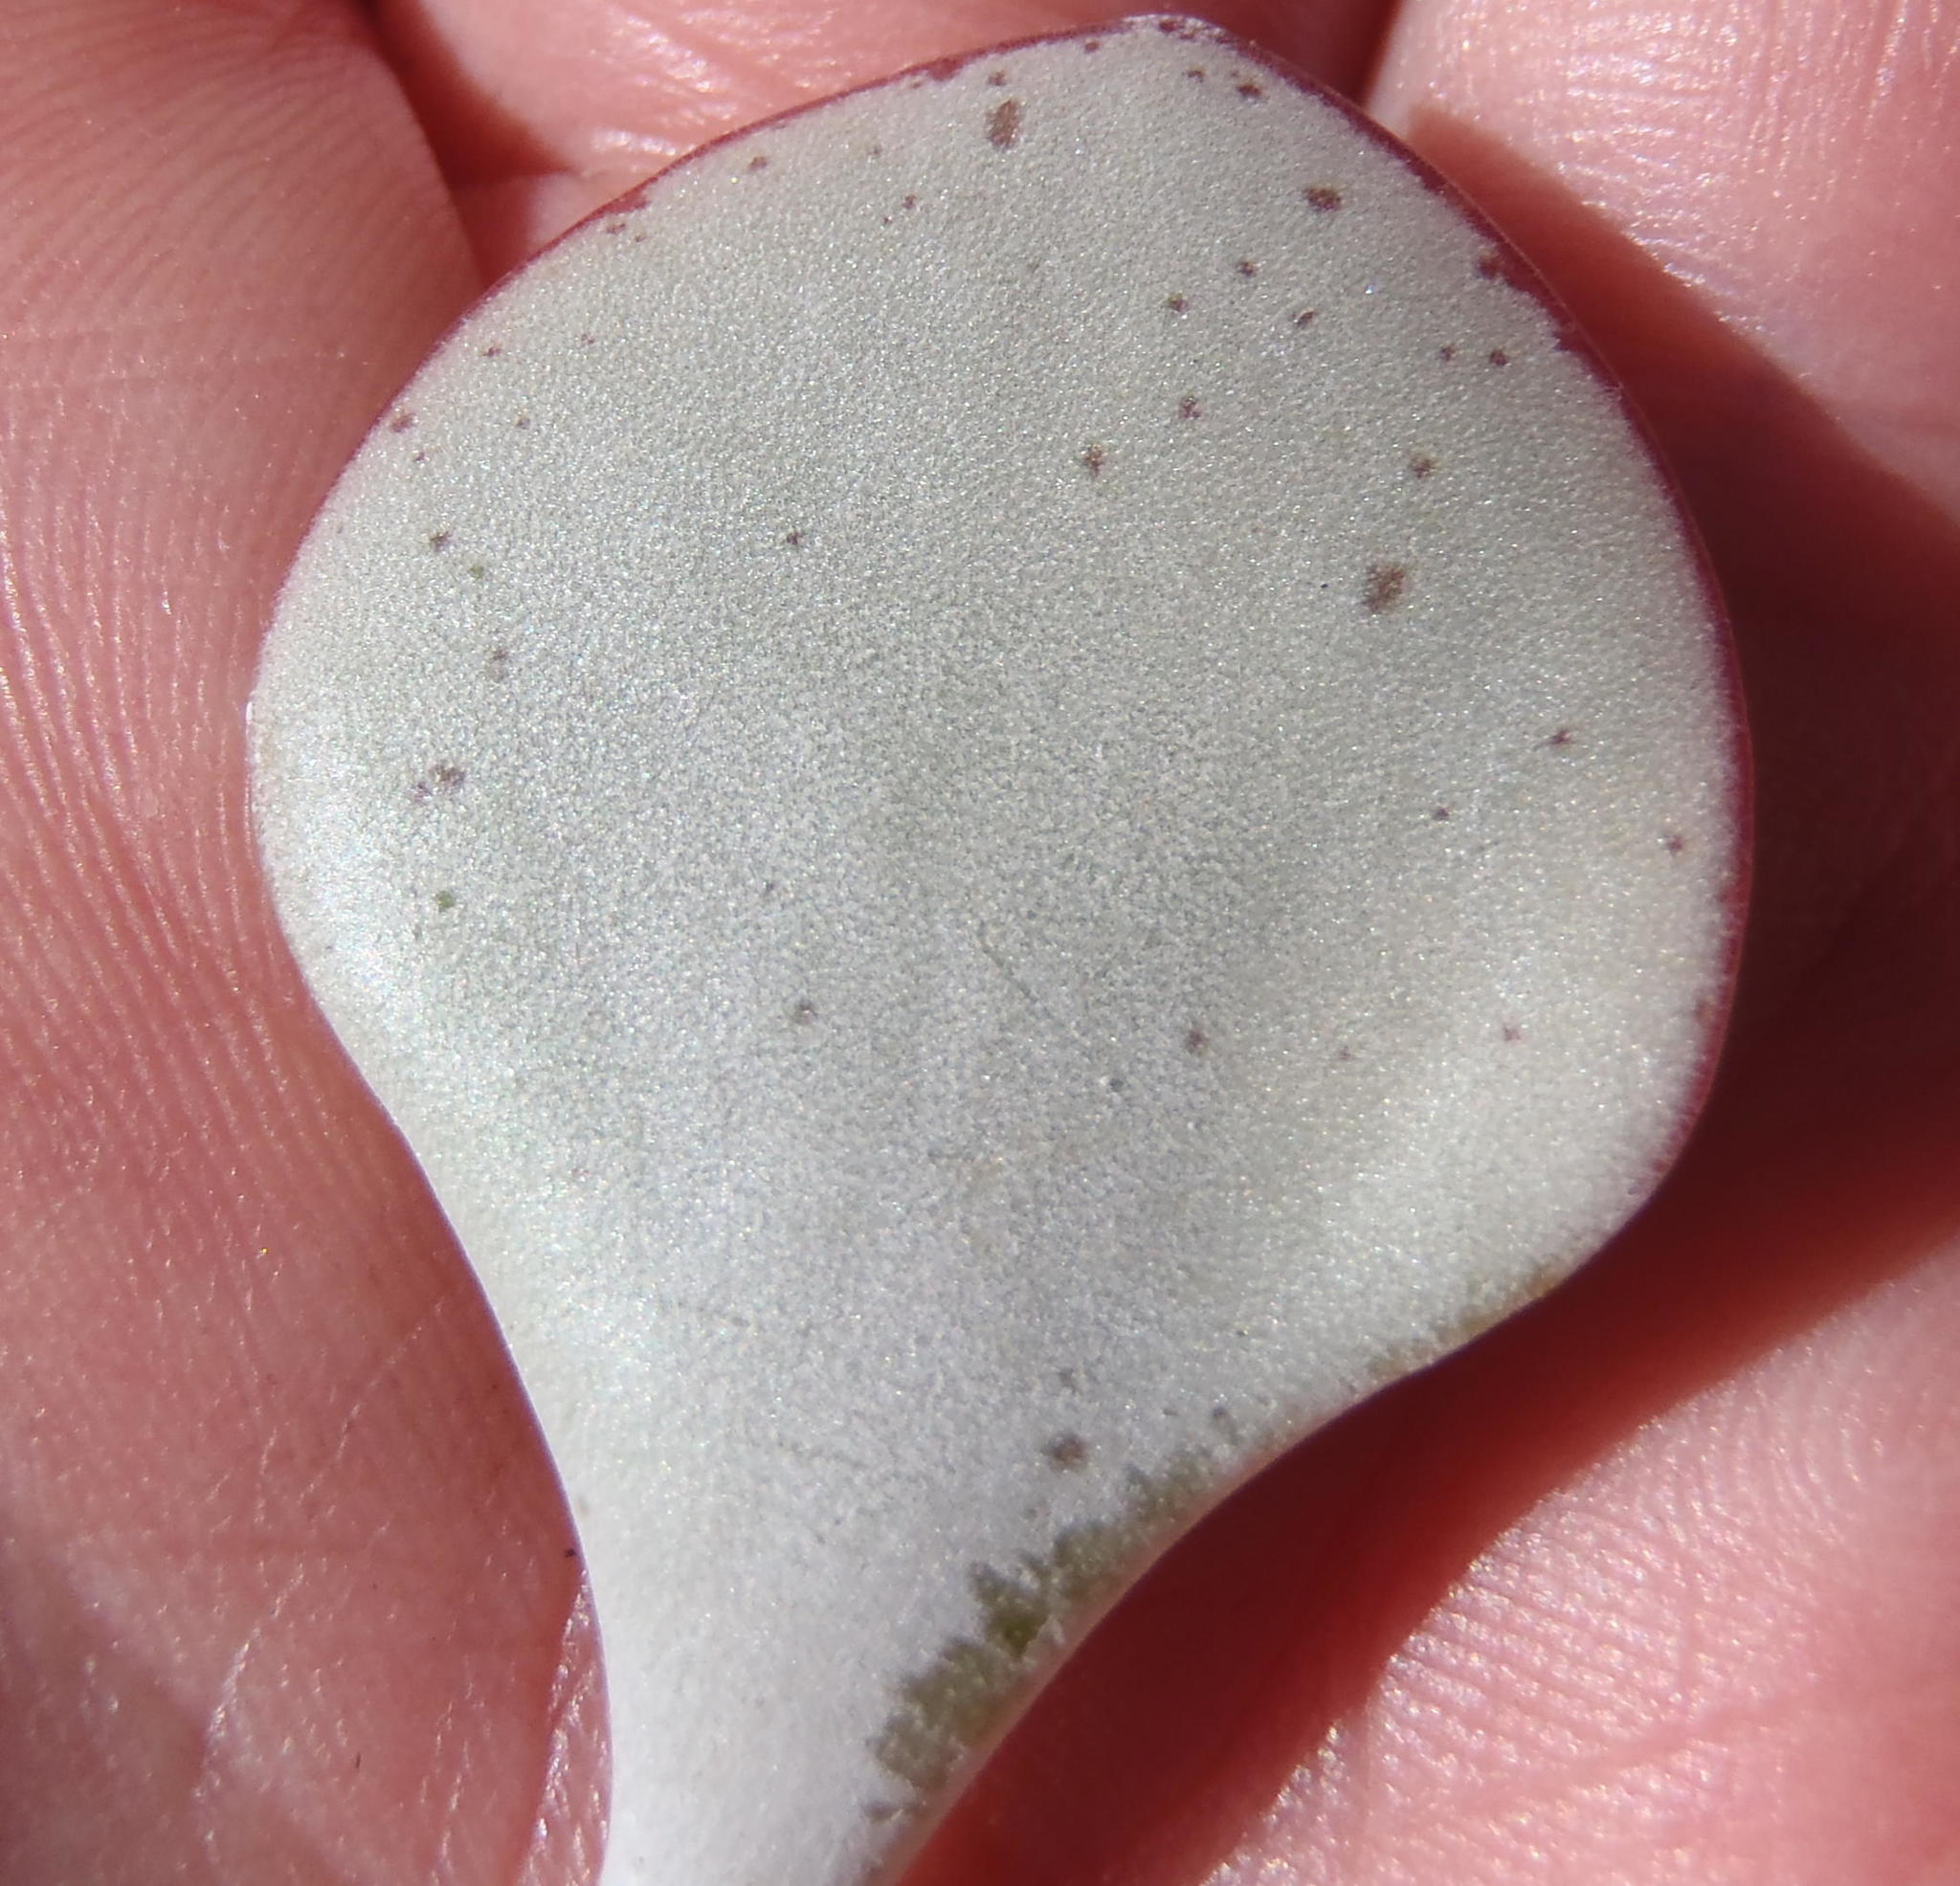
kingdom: Plantae
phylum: Tracheophyta
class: Magnoliopsida
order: Saxifragales
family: Crassulaceae
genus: Adromischus
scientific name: Adromischus inamoenus
